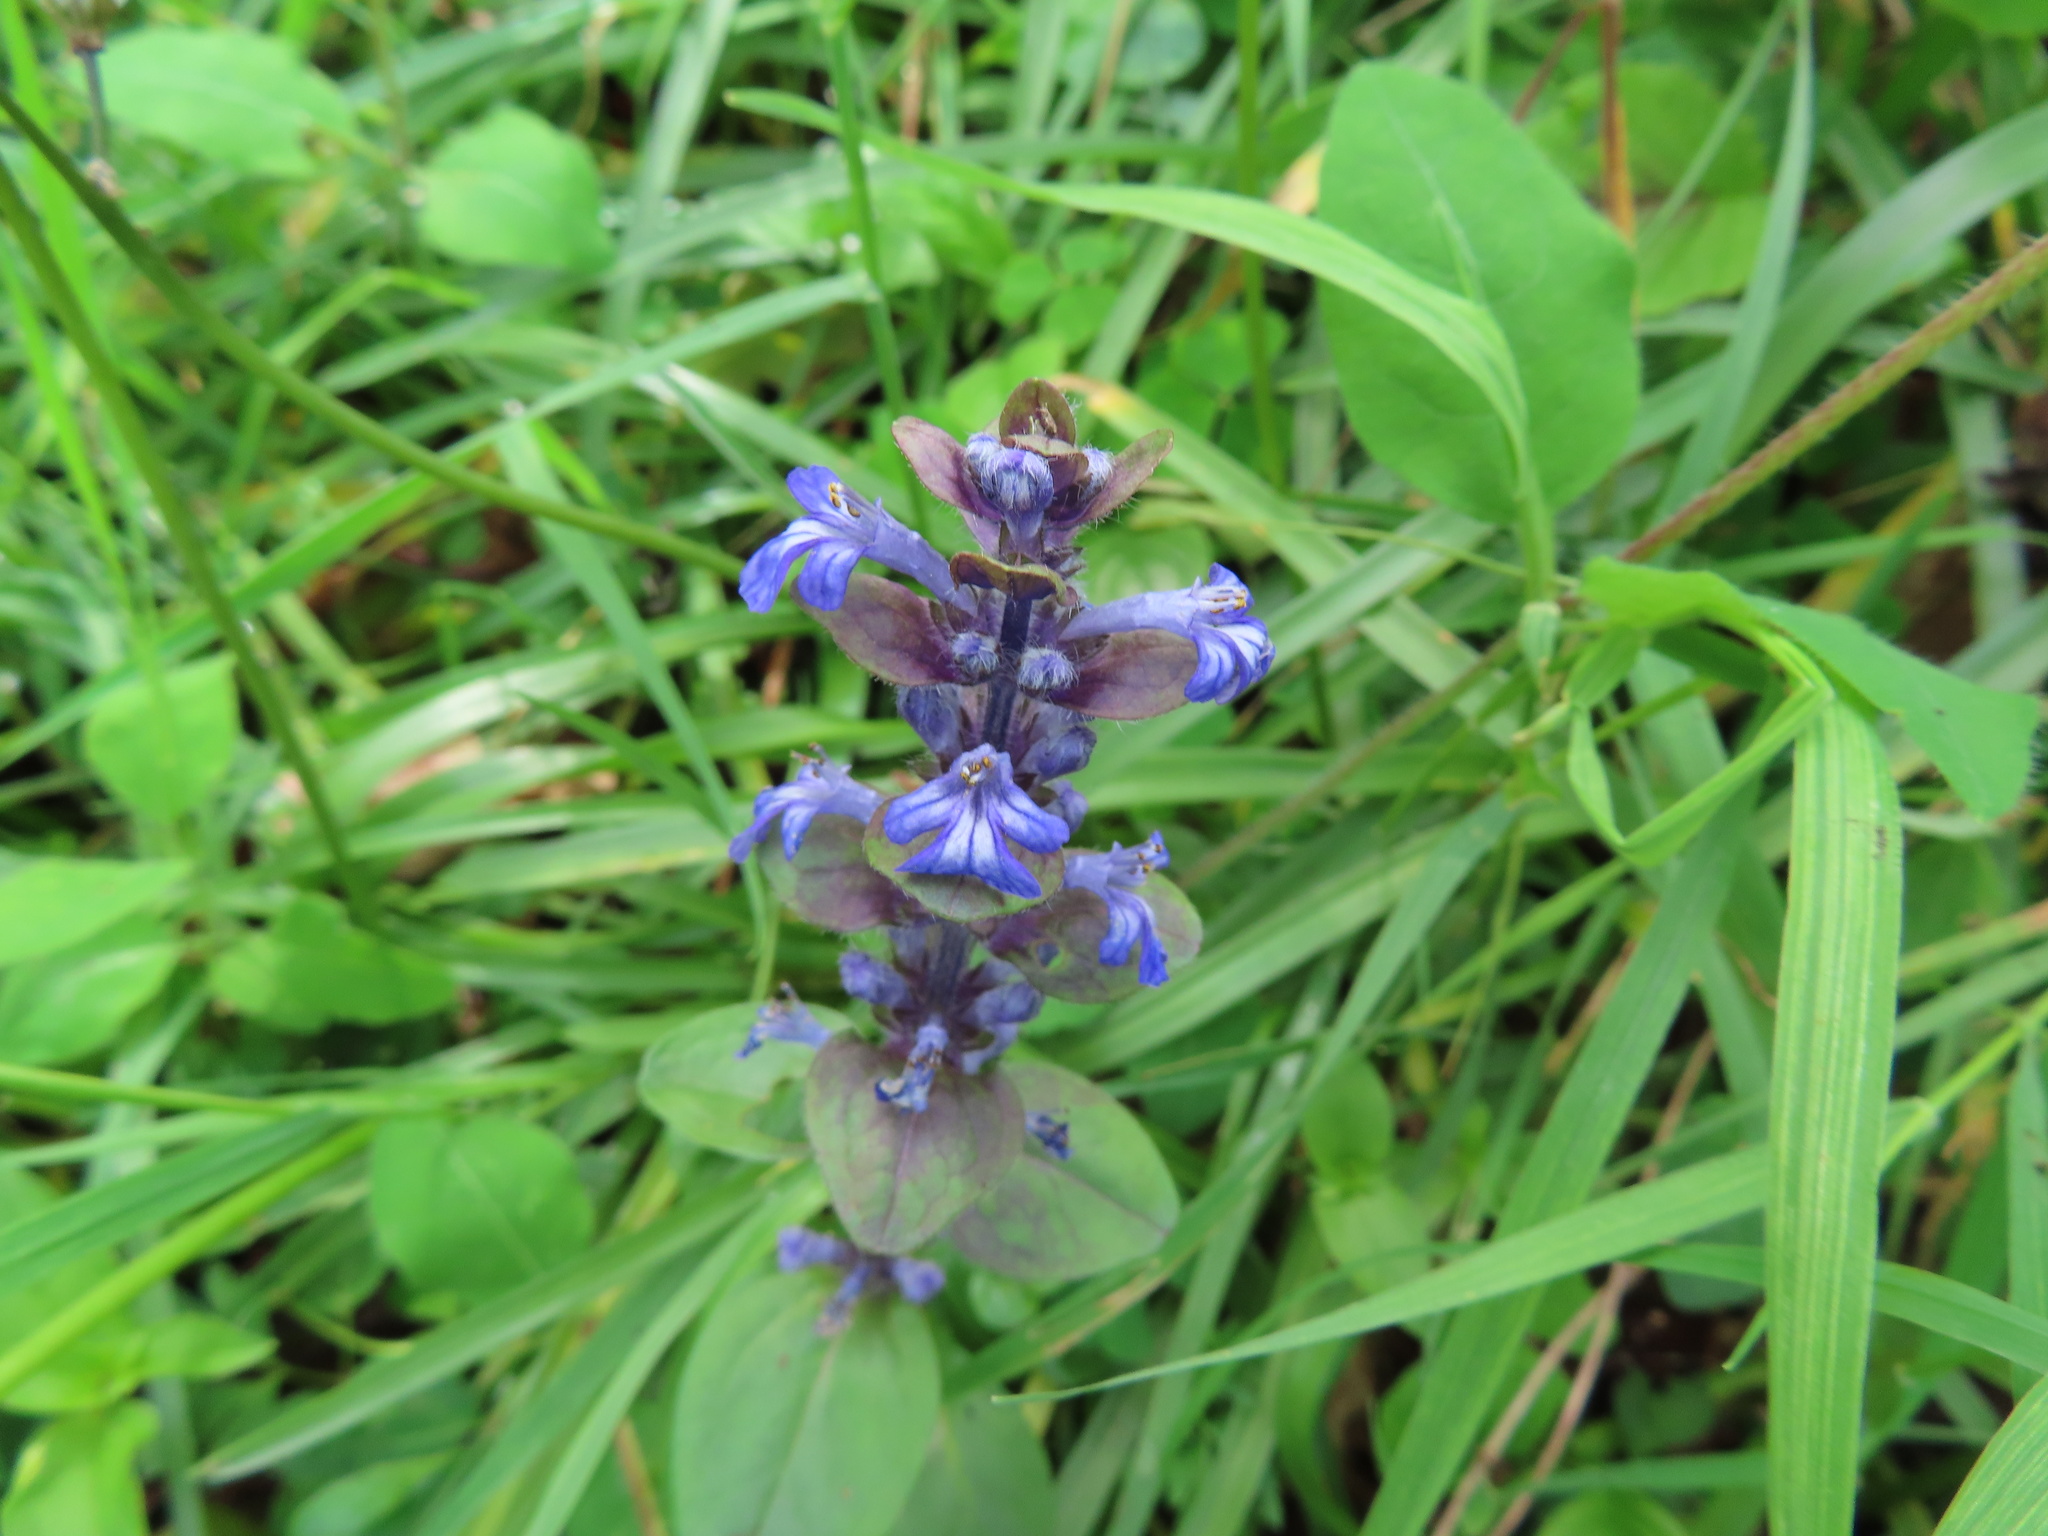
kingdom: Plantae
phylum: Tracheophyta
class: Magnoliopsida
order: Lamiales
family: Lamiaceae
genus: Ajuga
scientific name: Ajuga reptans
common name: Bugle
